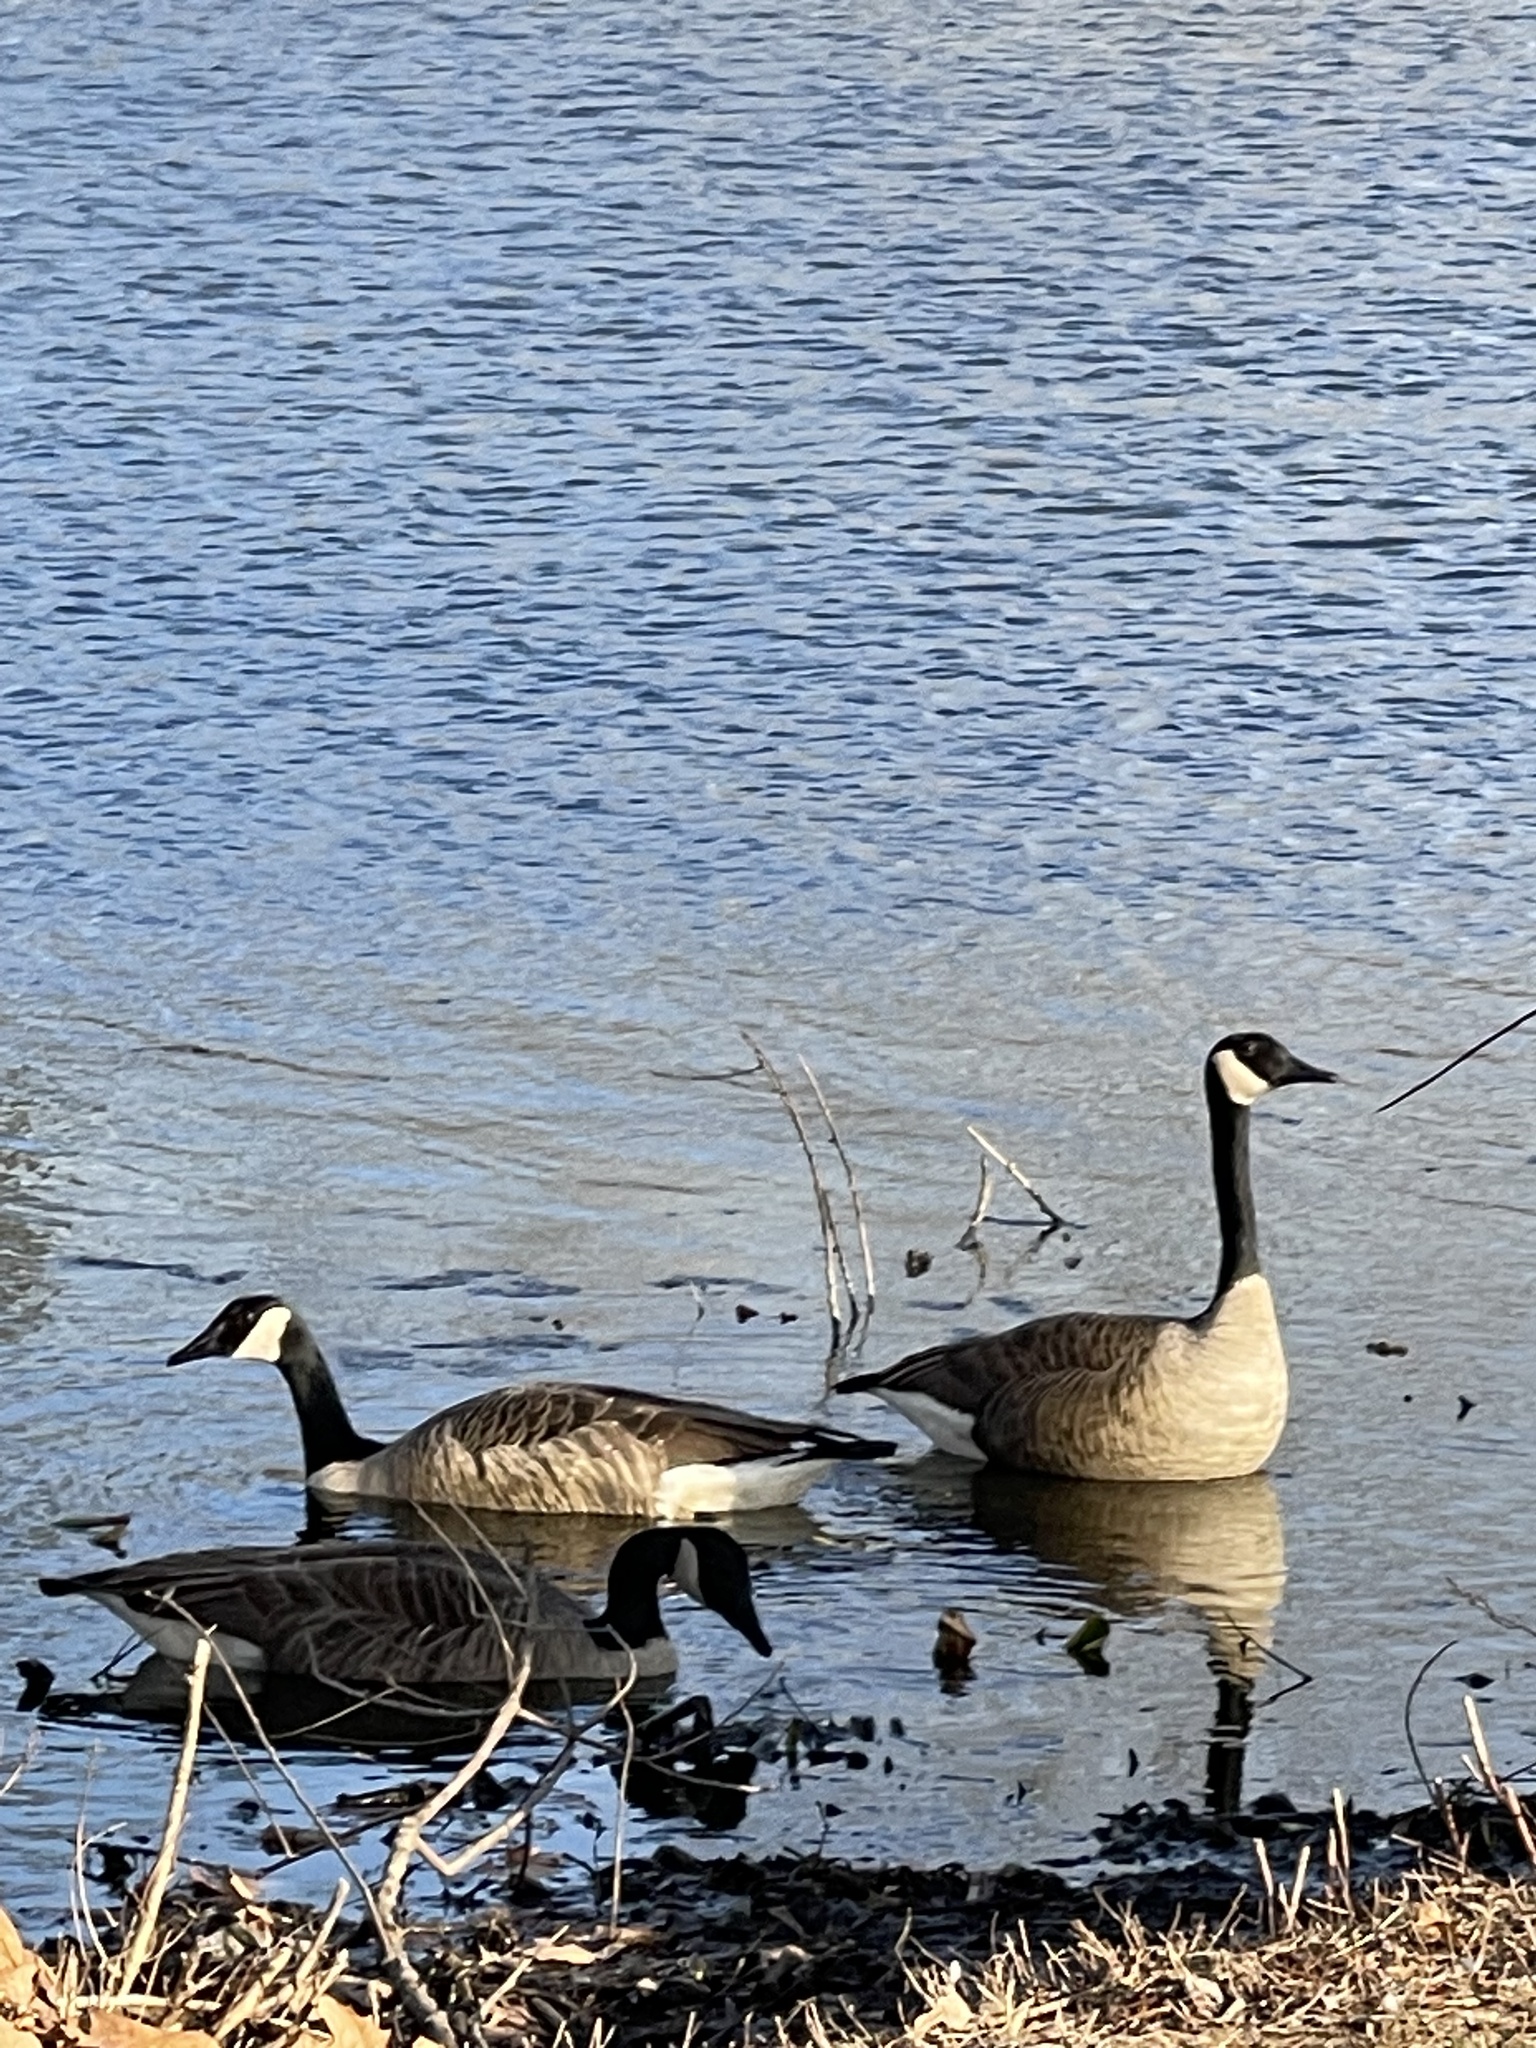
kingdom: Animalia
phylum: Chordata
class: Aves
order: Anseriformes
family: Anatidae
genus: Branta
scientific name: Branta canadensis
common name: Canada goose
